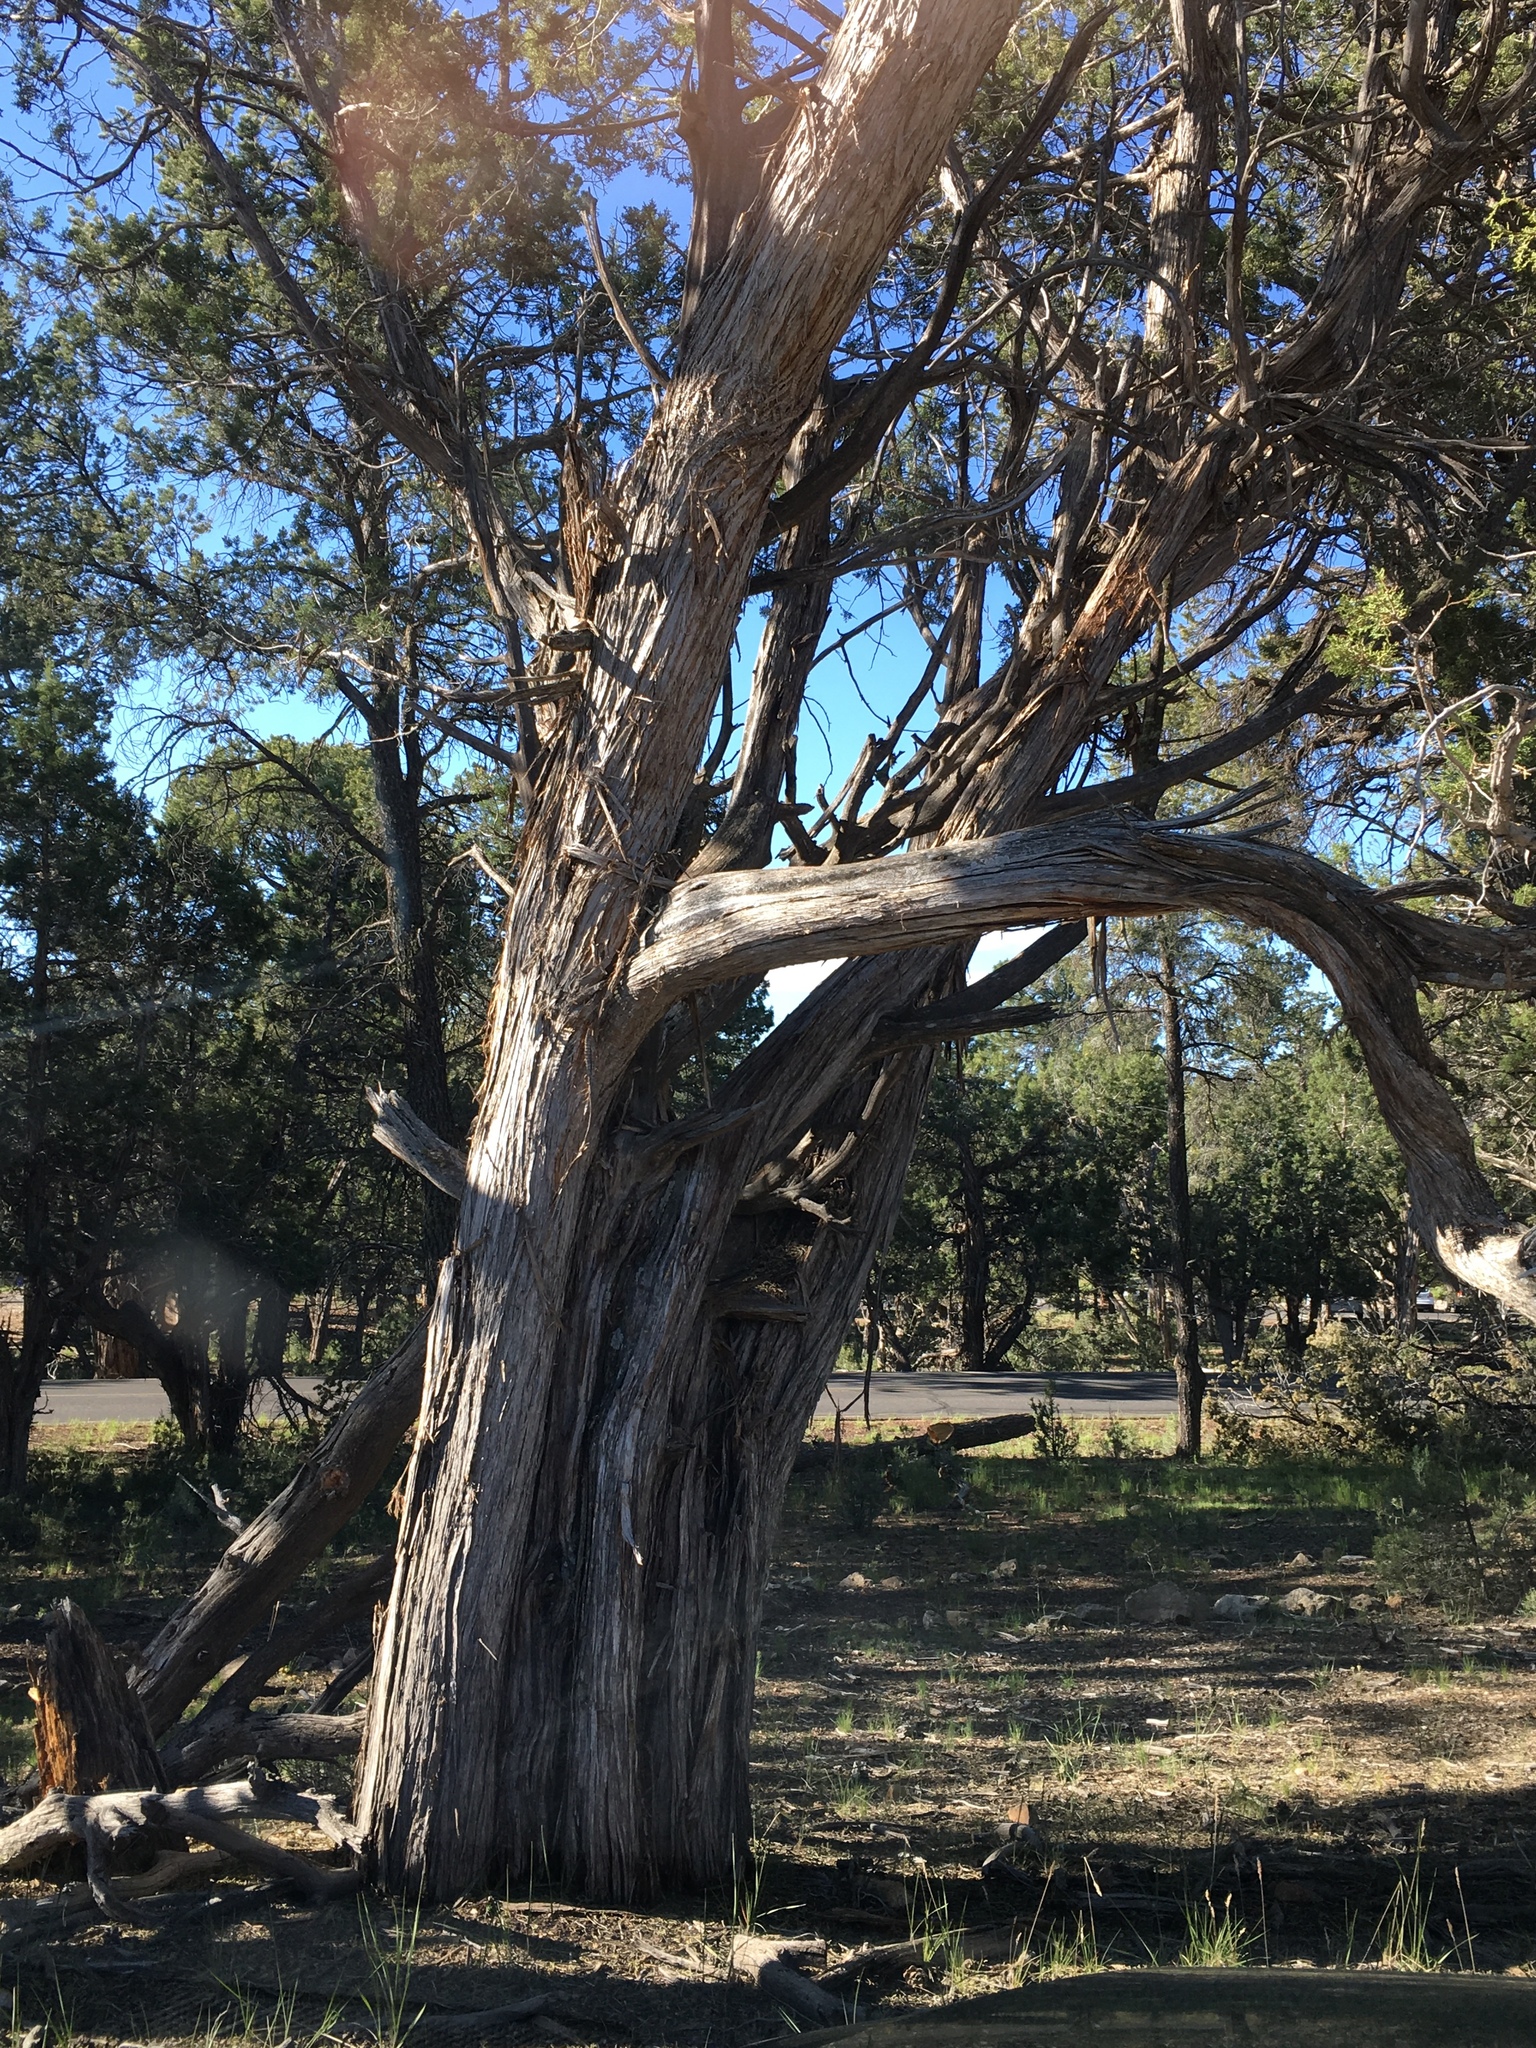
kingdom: Plantae
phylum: Tracheophyta
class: Pinopsida
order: Pinales
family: Cupressaceae
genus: Juniperus
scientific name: Juniperus osteosperma
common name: Utah juniper
